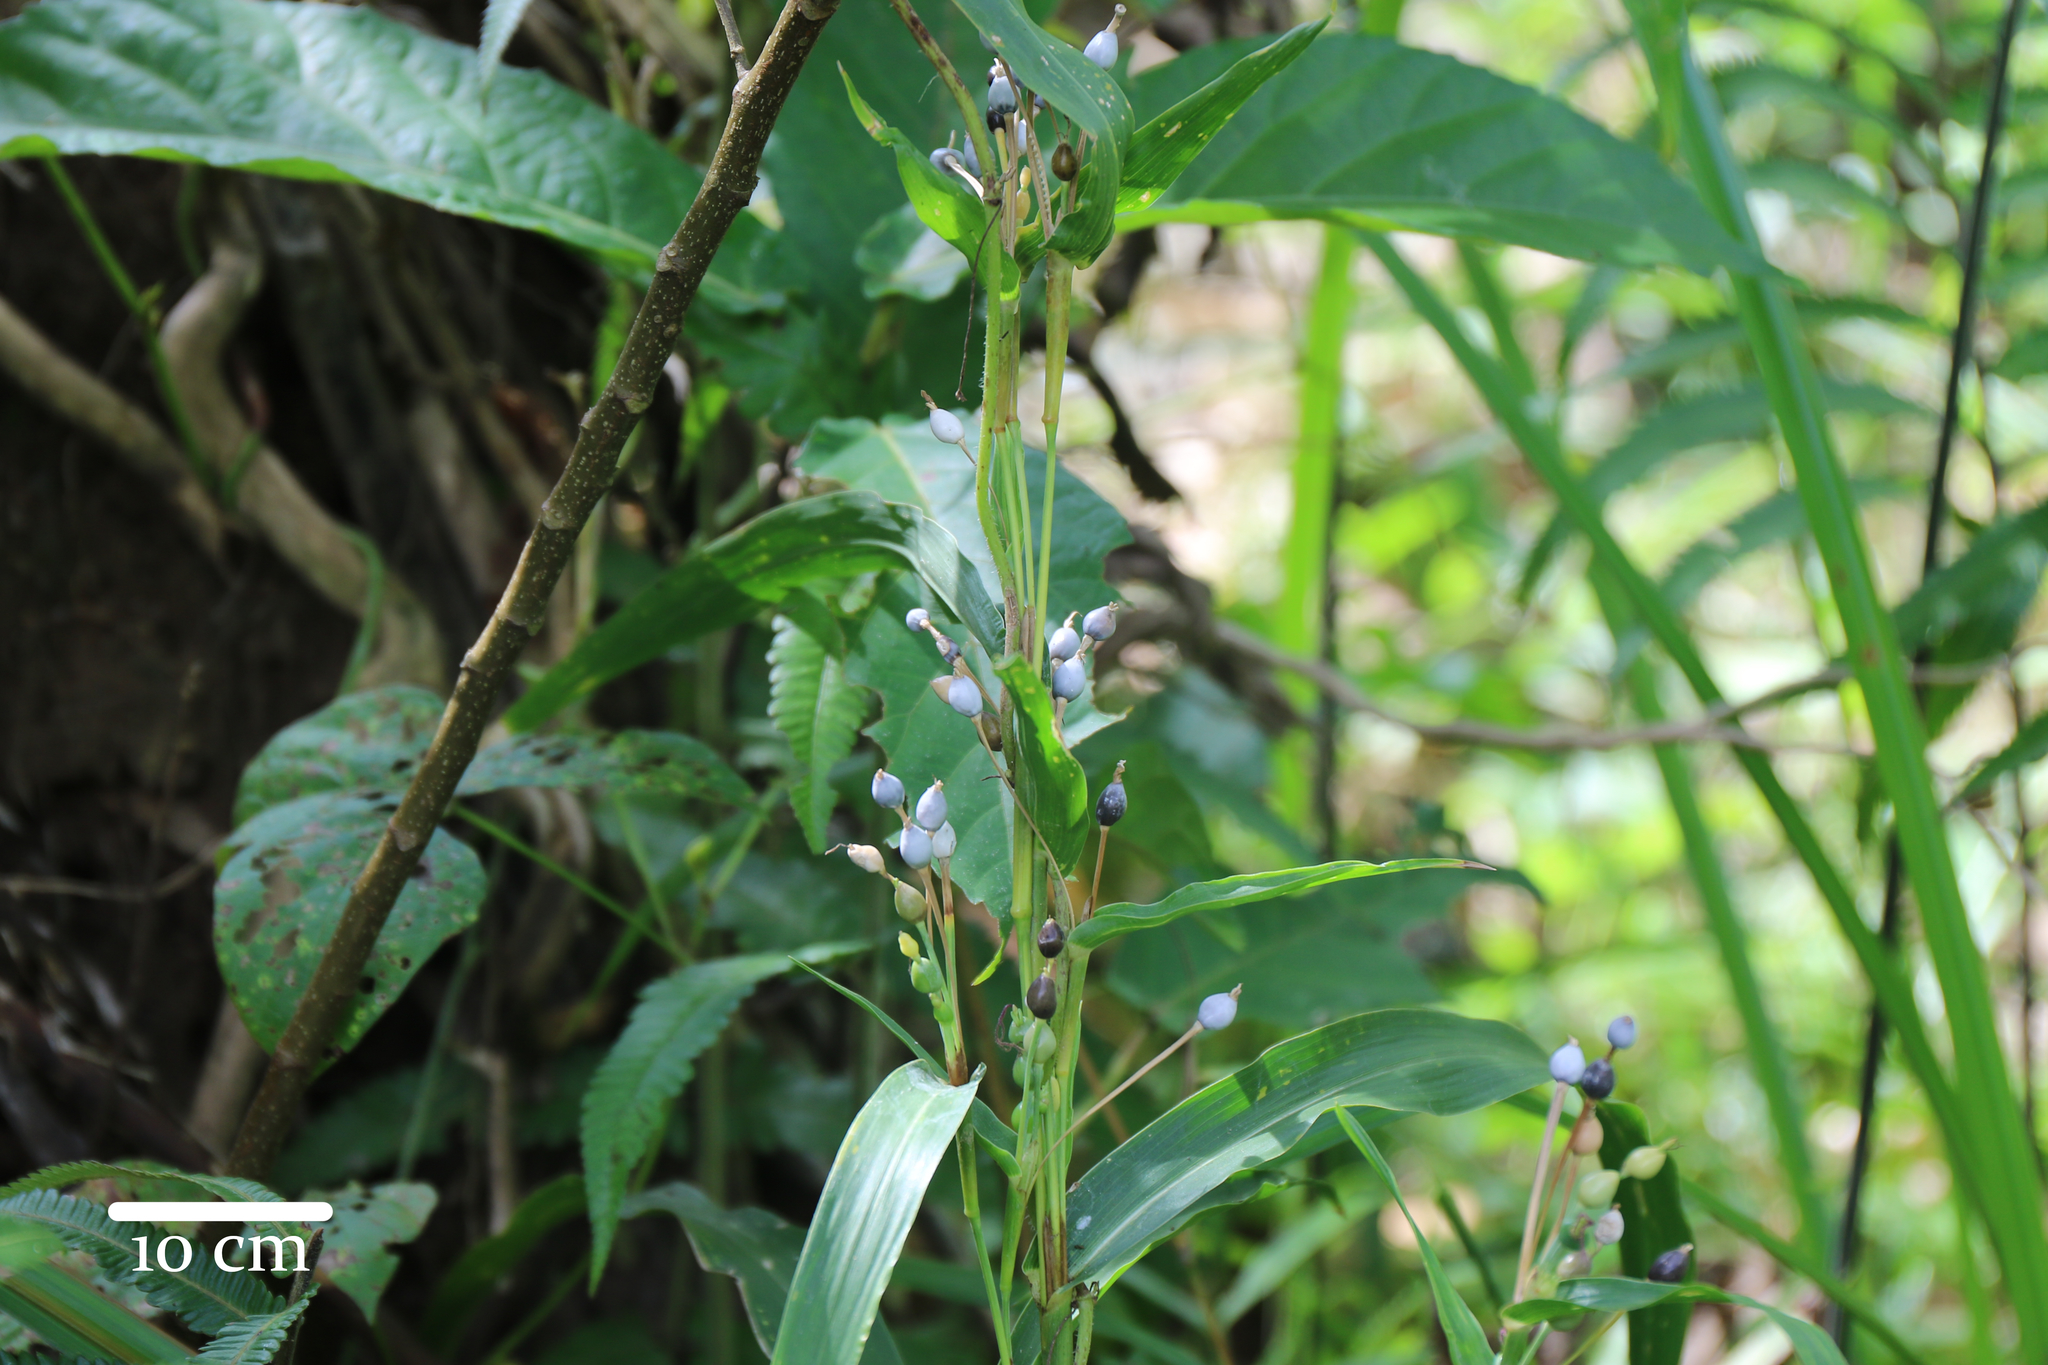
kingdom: Plantae
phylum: Tracheophyta
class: Liliopsida
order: Poales
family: Poaceae
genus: Coix
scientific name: Coix lacryma-jobi
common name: Job's tears
